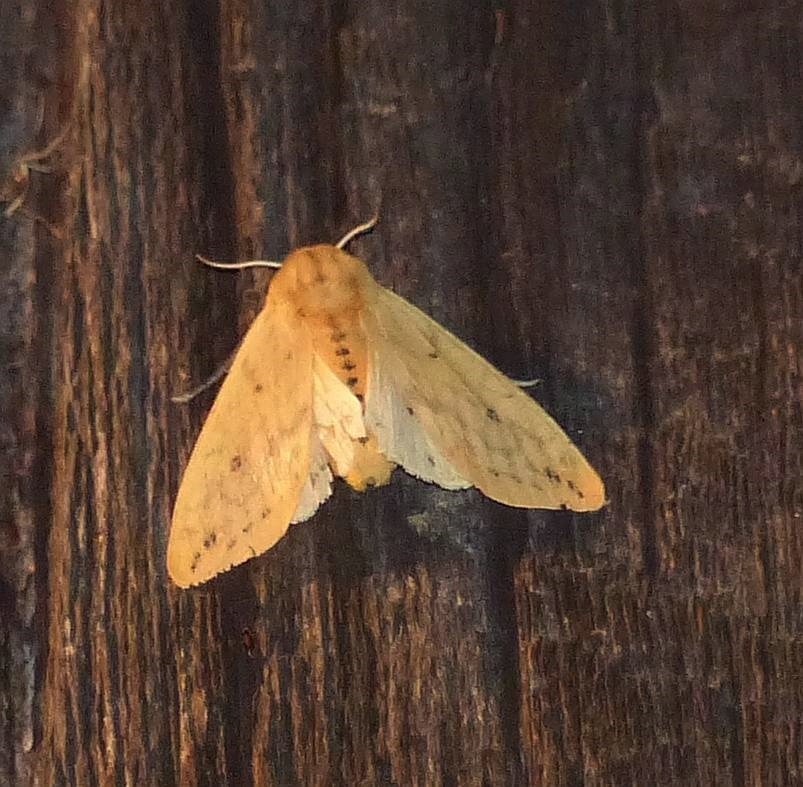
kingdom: Animalia
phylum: Arthropoda
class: Insecta
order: Lepidoptera
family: Erebidae
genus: Pyrrharctia
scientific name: Pyrrharctia isabella
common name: Isabella tiger moth
